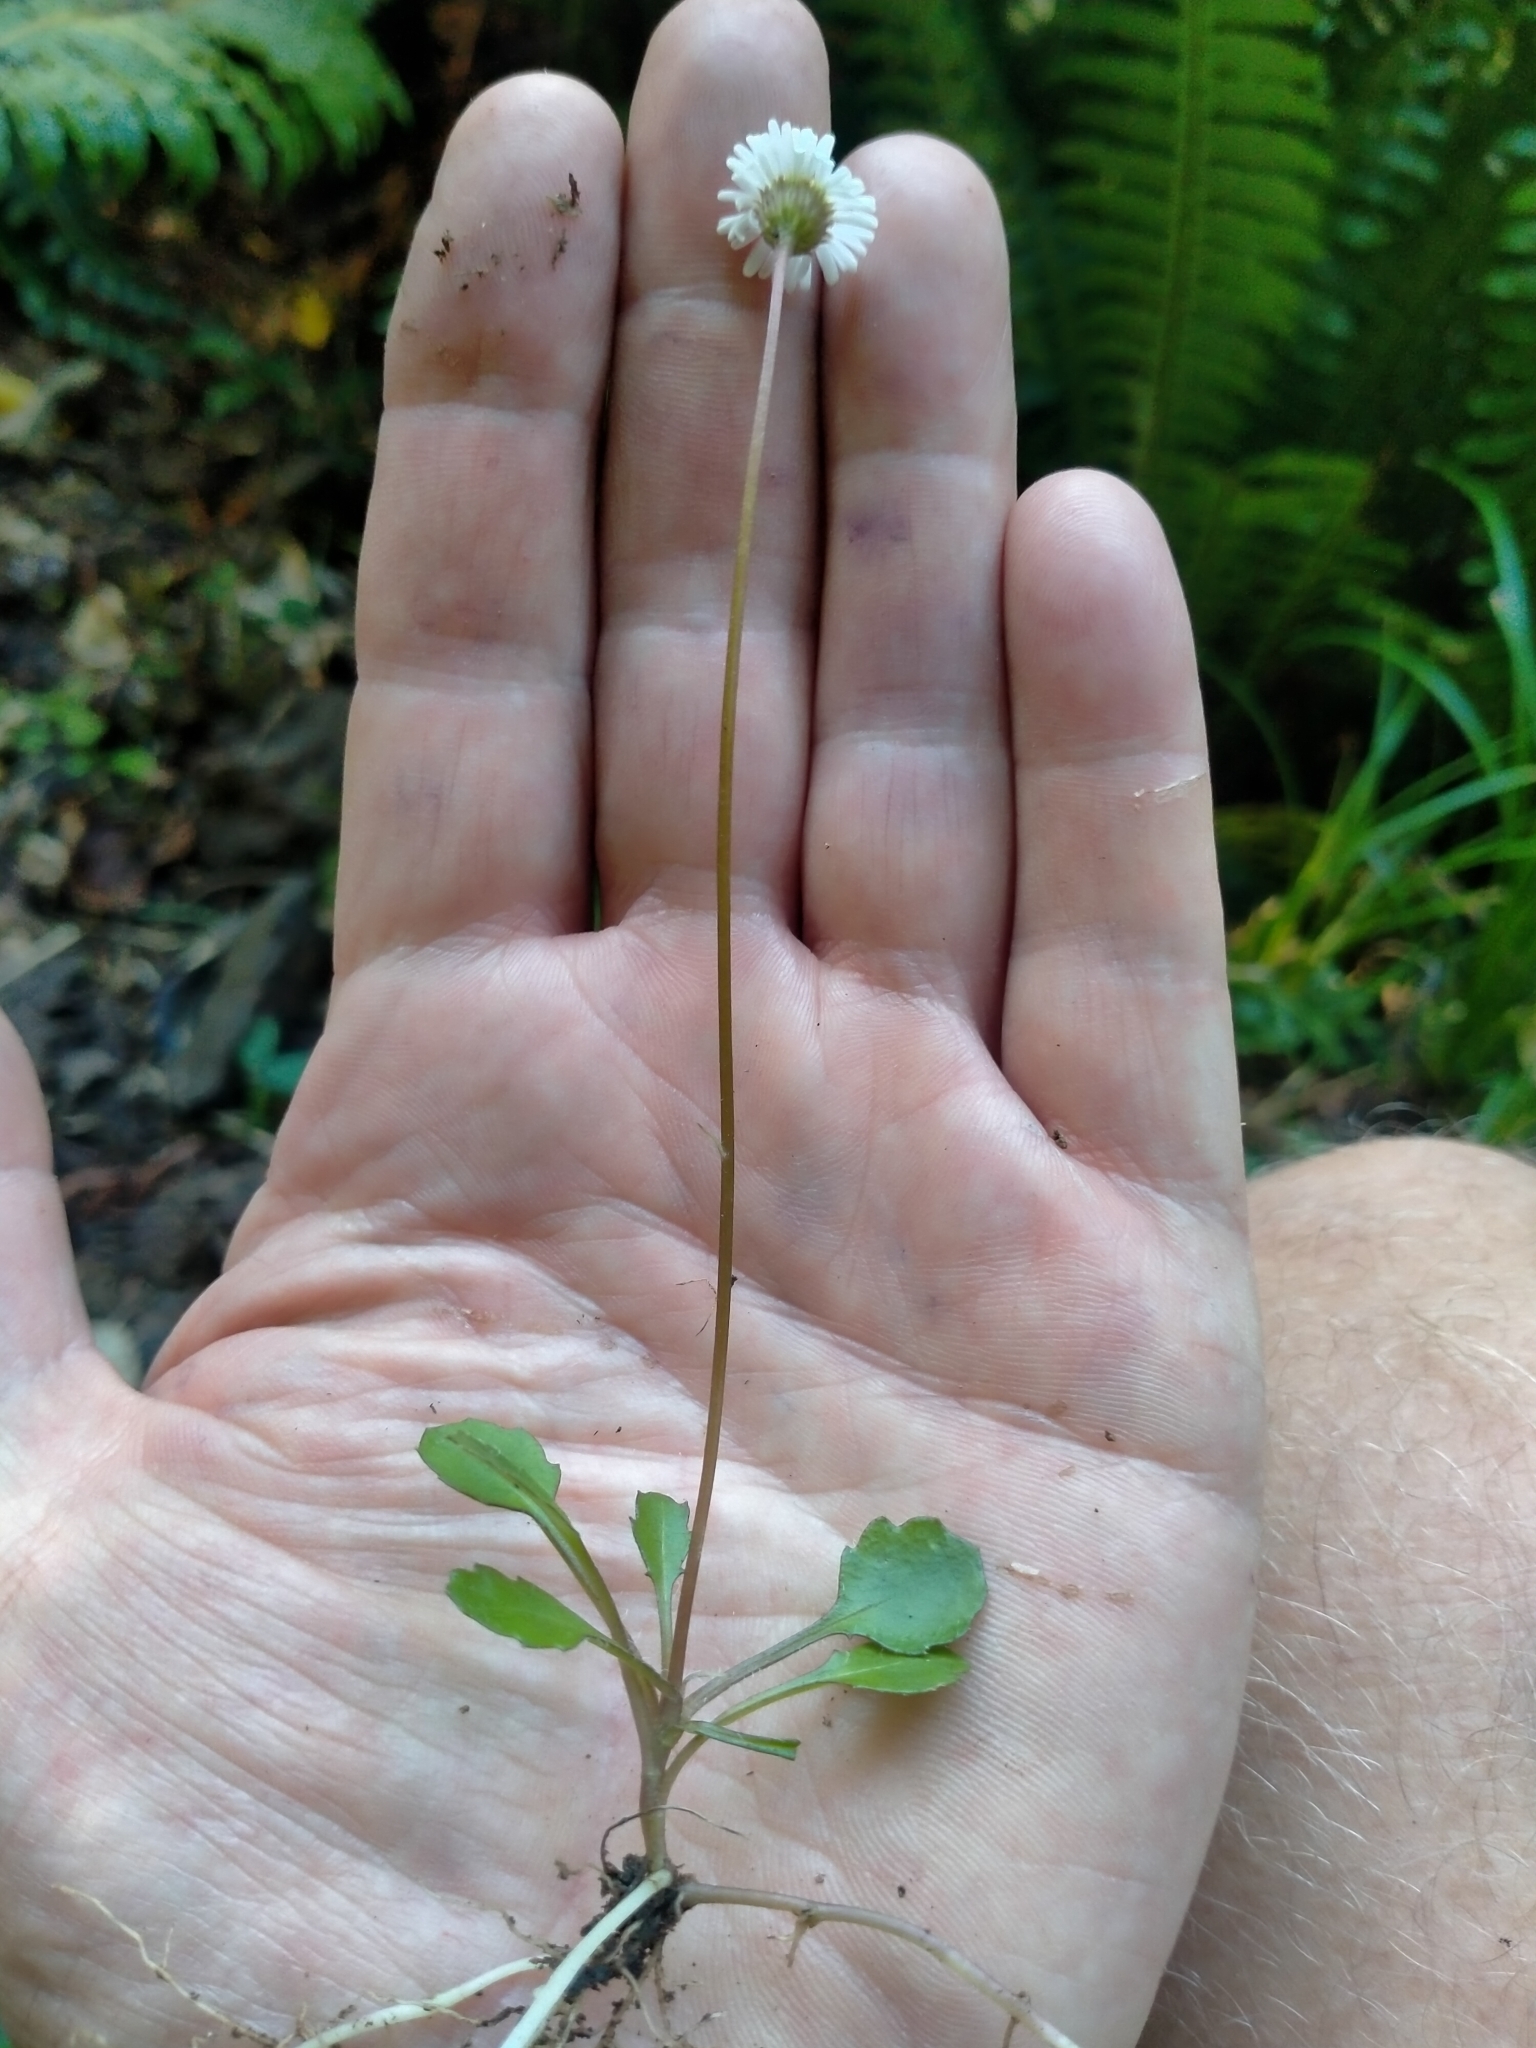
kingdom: Plantae
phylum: Tracheophyta
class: Magnoliopsida
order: Asterales
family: Asteraceae
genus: Lagenophora
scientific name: Lagenophora pumila
